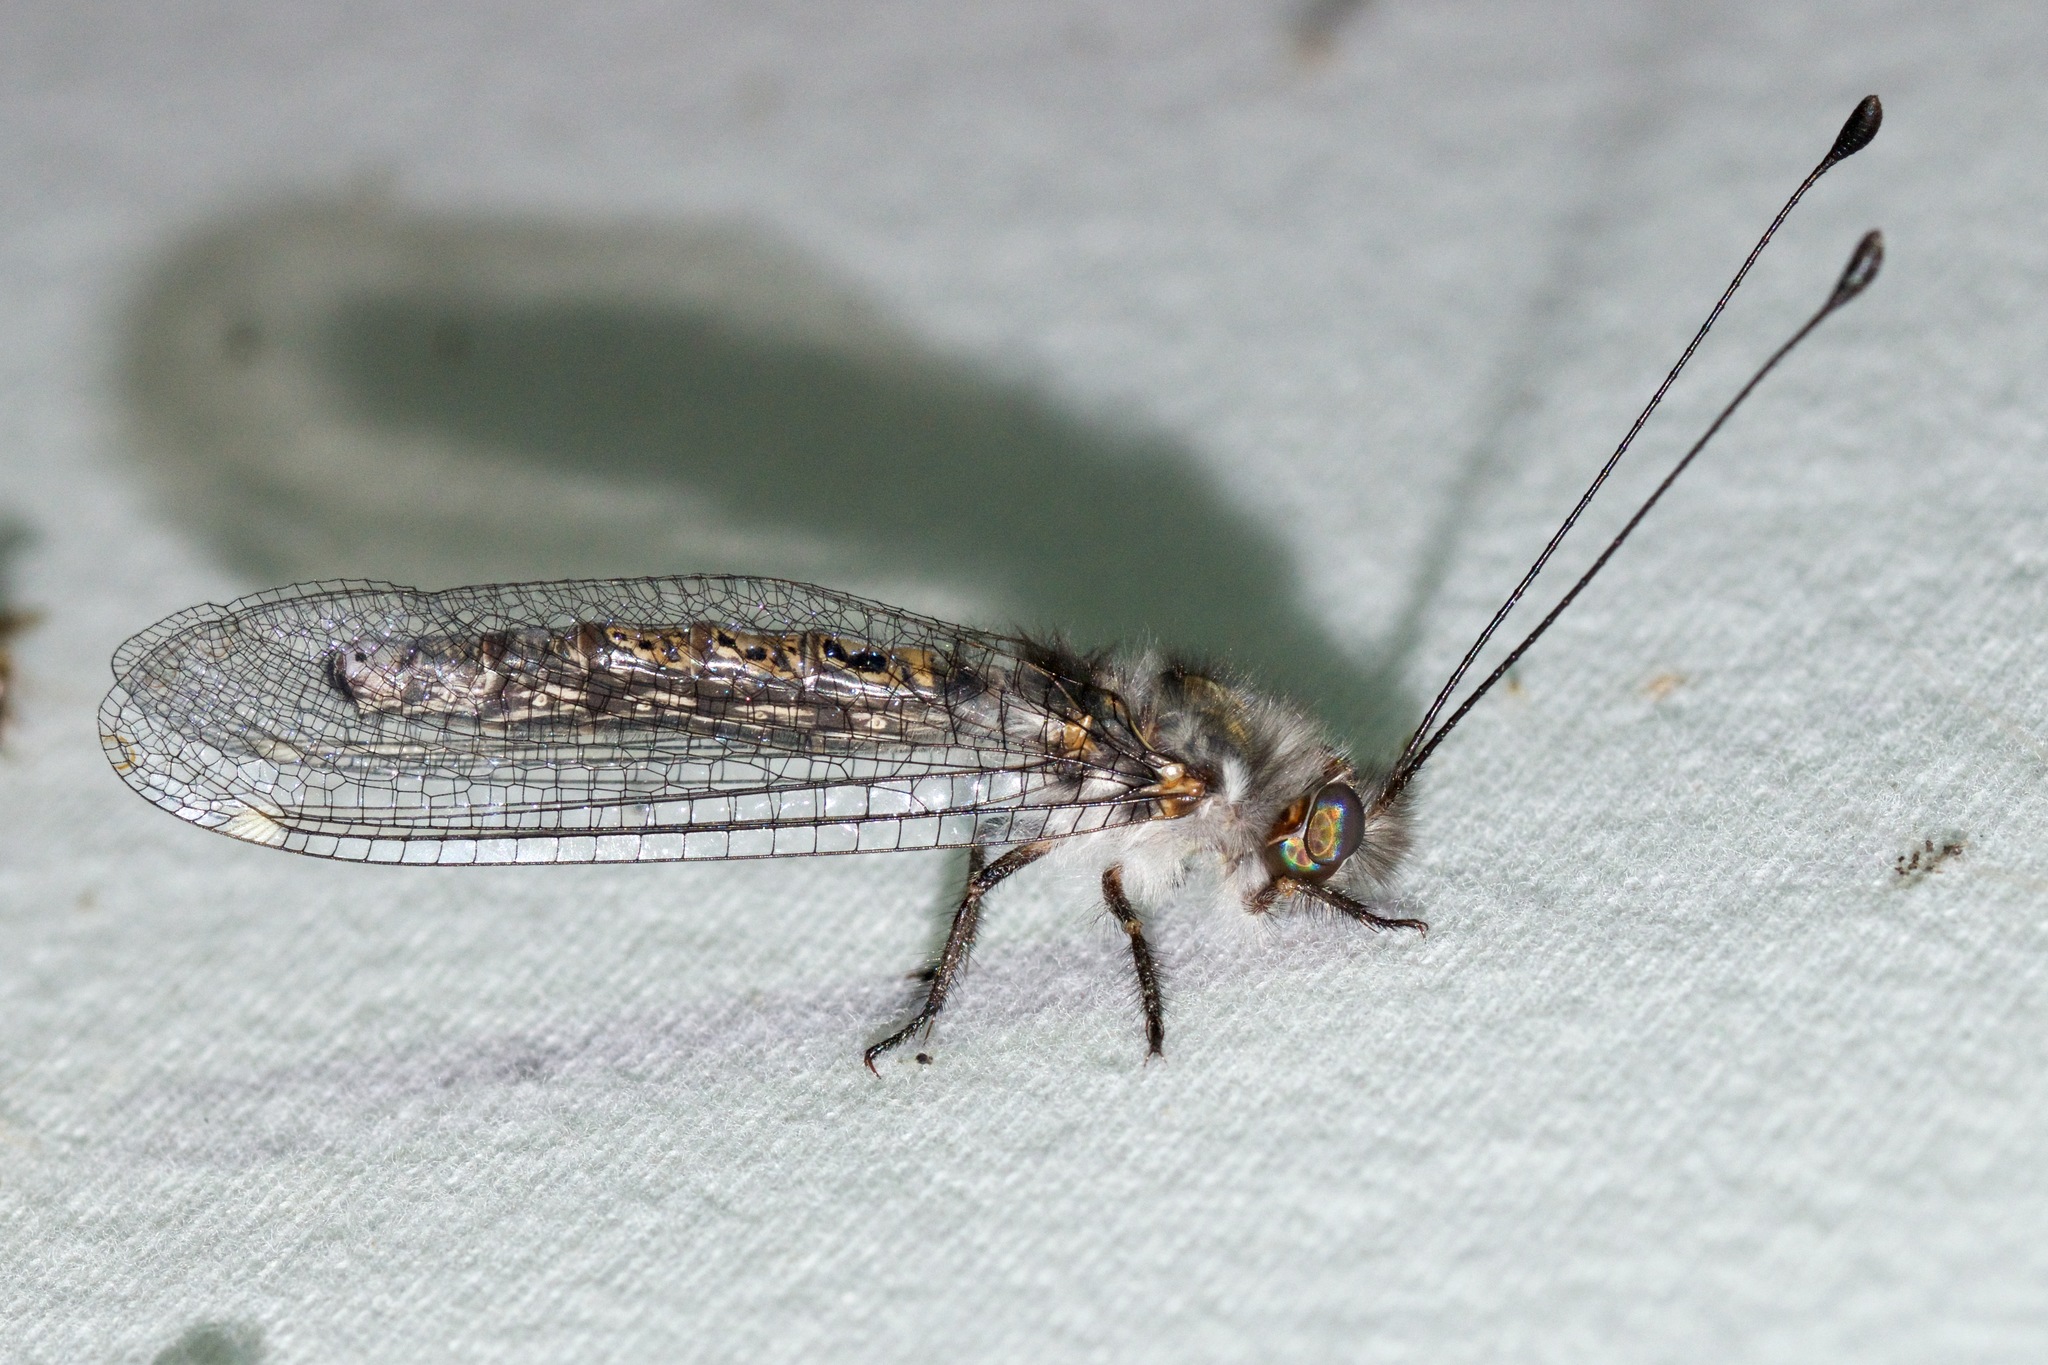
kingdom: Animalia
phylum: Arthropoda
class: Insecta
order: Neuroptera
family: Ascalaphidae
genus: Ululodes
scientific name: Ululodes quadripunctatus
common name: Four-spotted owlfly
